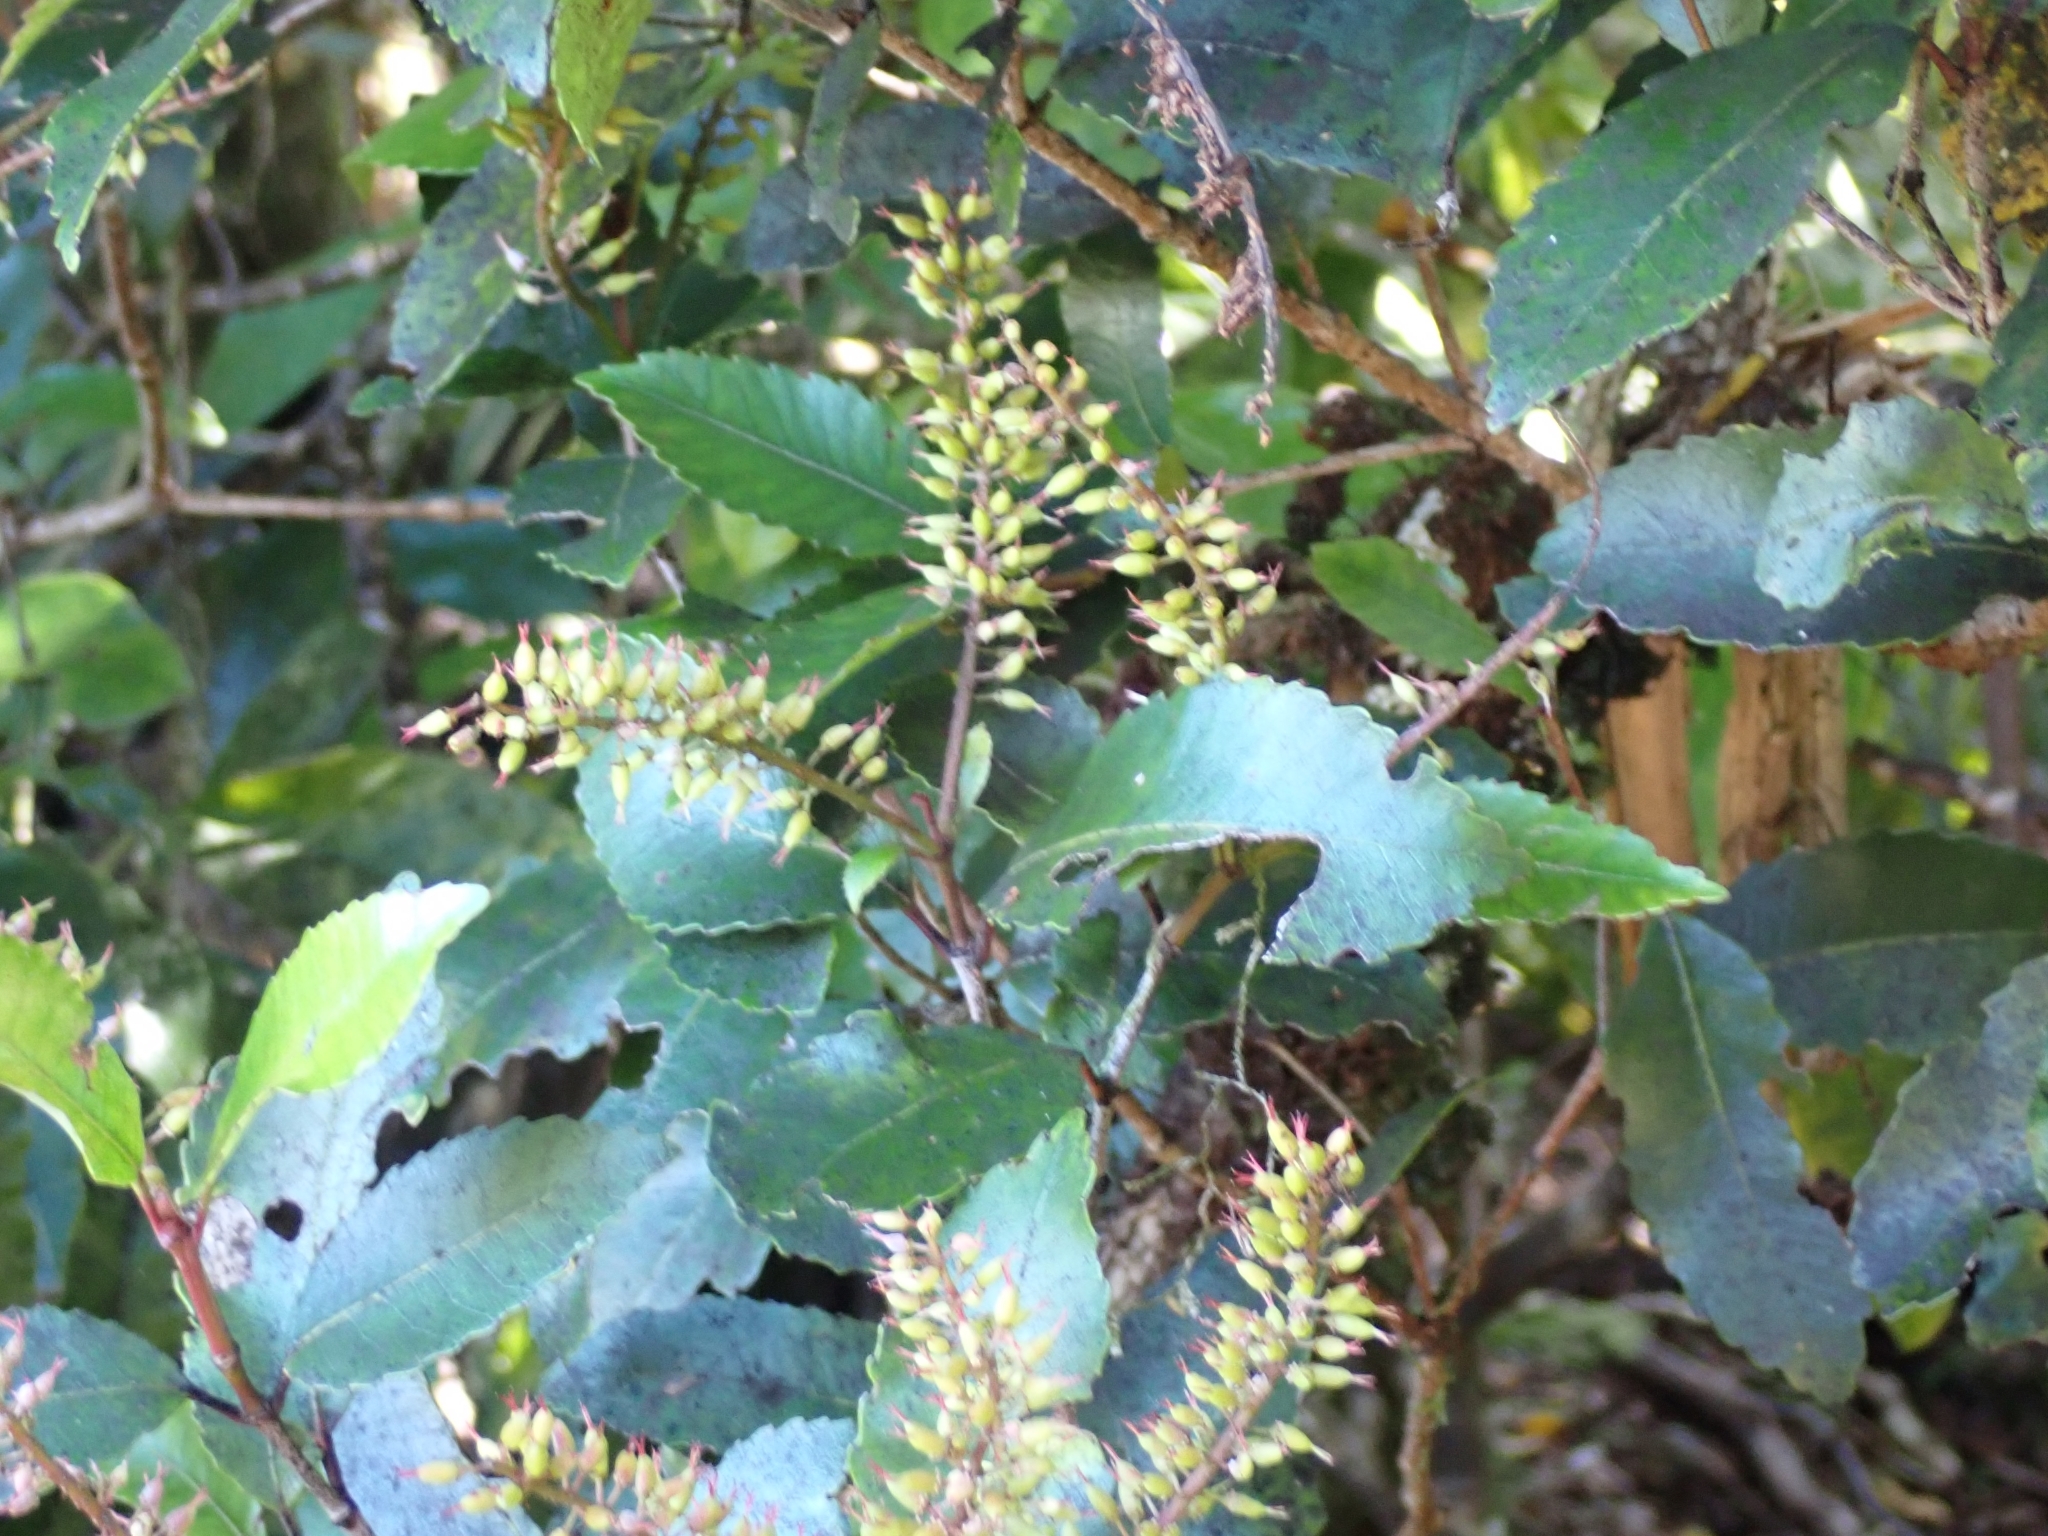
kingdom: Plantae
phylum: Tracheophyta
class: Magnoliopsida
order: Oxalidales
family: Cunoniaceae
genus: Pterophylla
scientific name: Pterophylla racemosa
